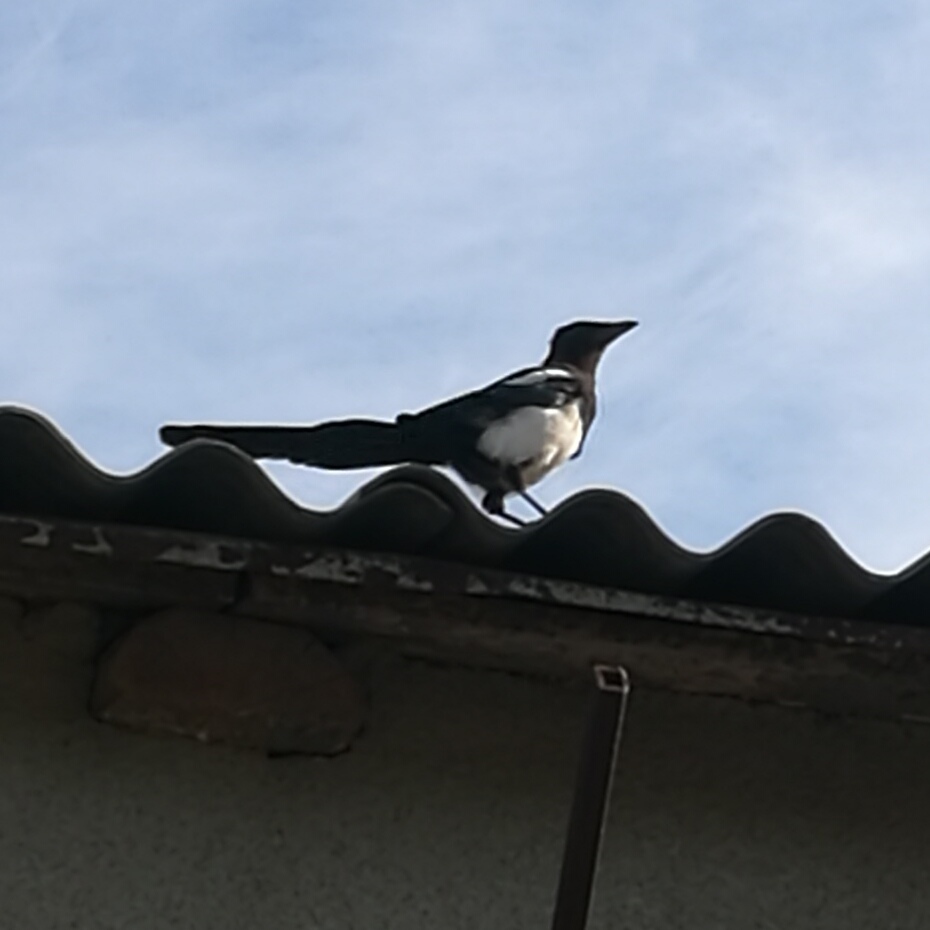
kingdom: Animalia
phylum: Chordata
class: Aves
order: Passeriformes
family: Corvidae
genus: Pica
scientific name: Pica pica
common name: Eurasian magpie
